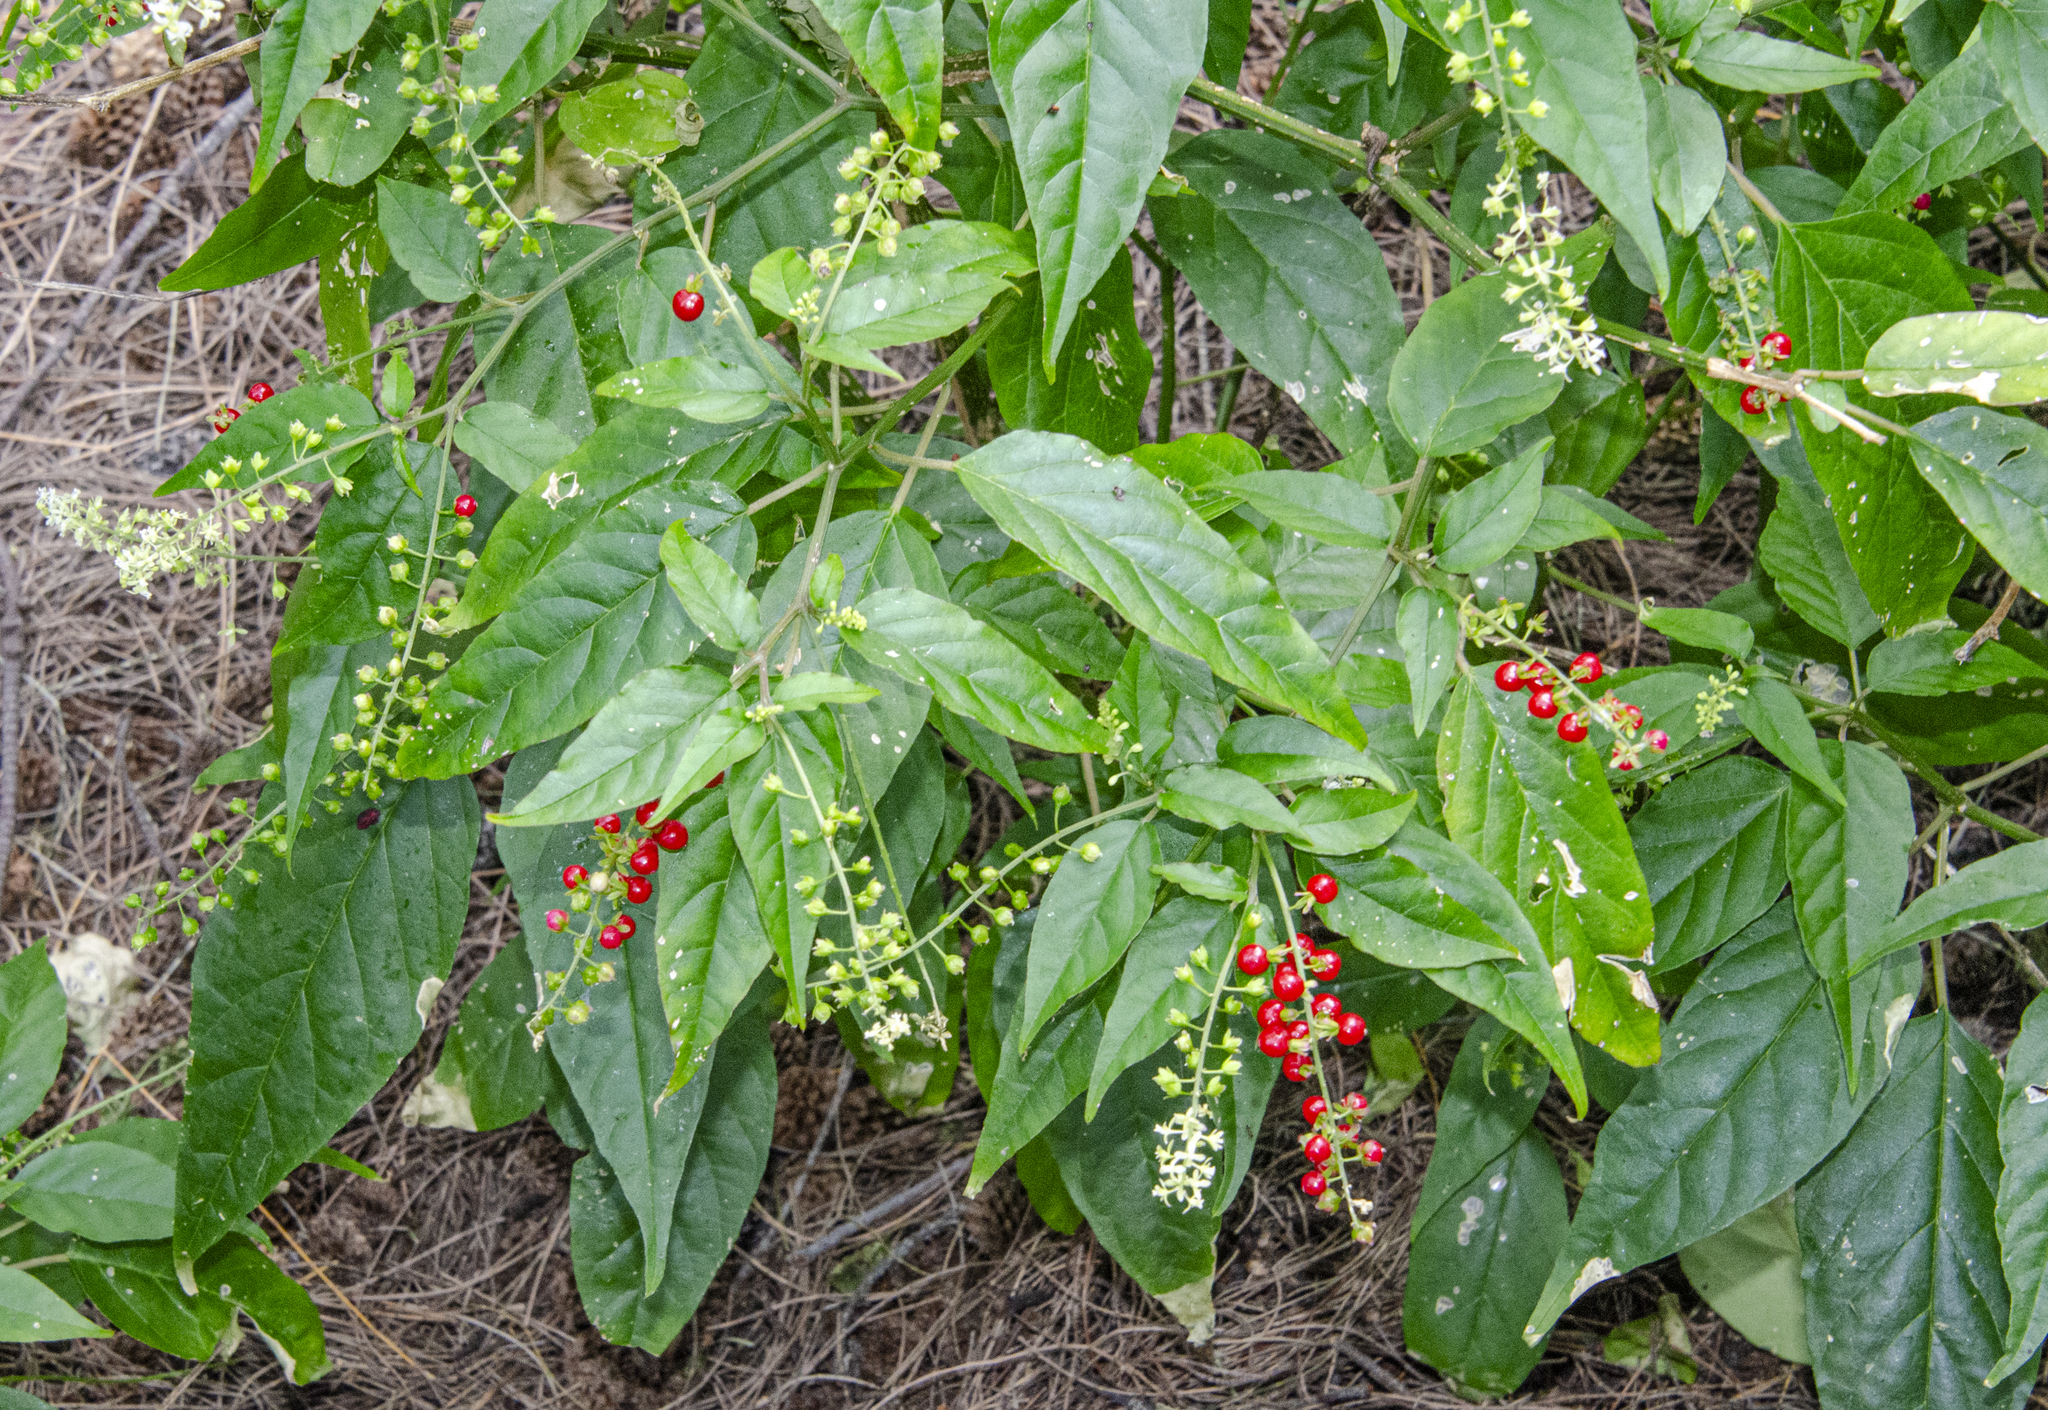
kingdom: Plantae
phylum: Tracheophyta
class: Magnoliopsida
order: Caryophyllales
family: Phytolaccaceae
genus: Rivina
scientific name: Rivina humilis
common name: Rougeplant
